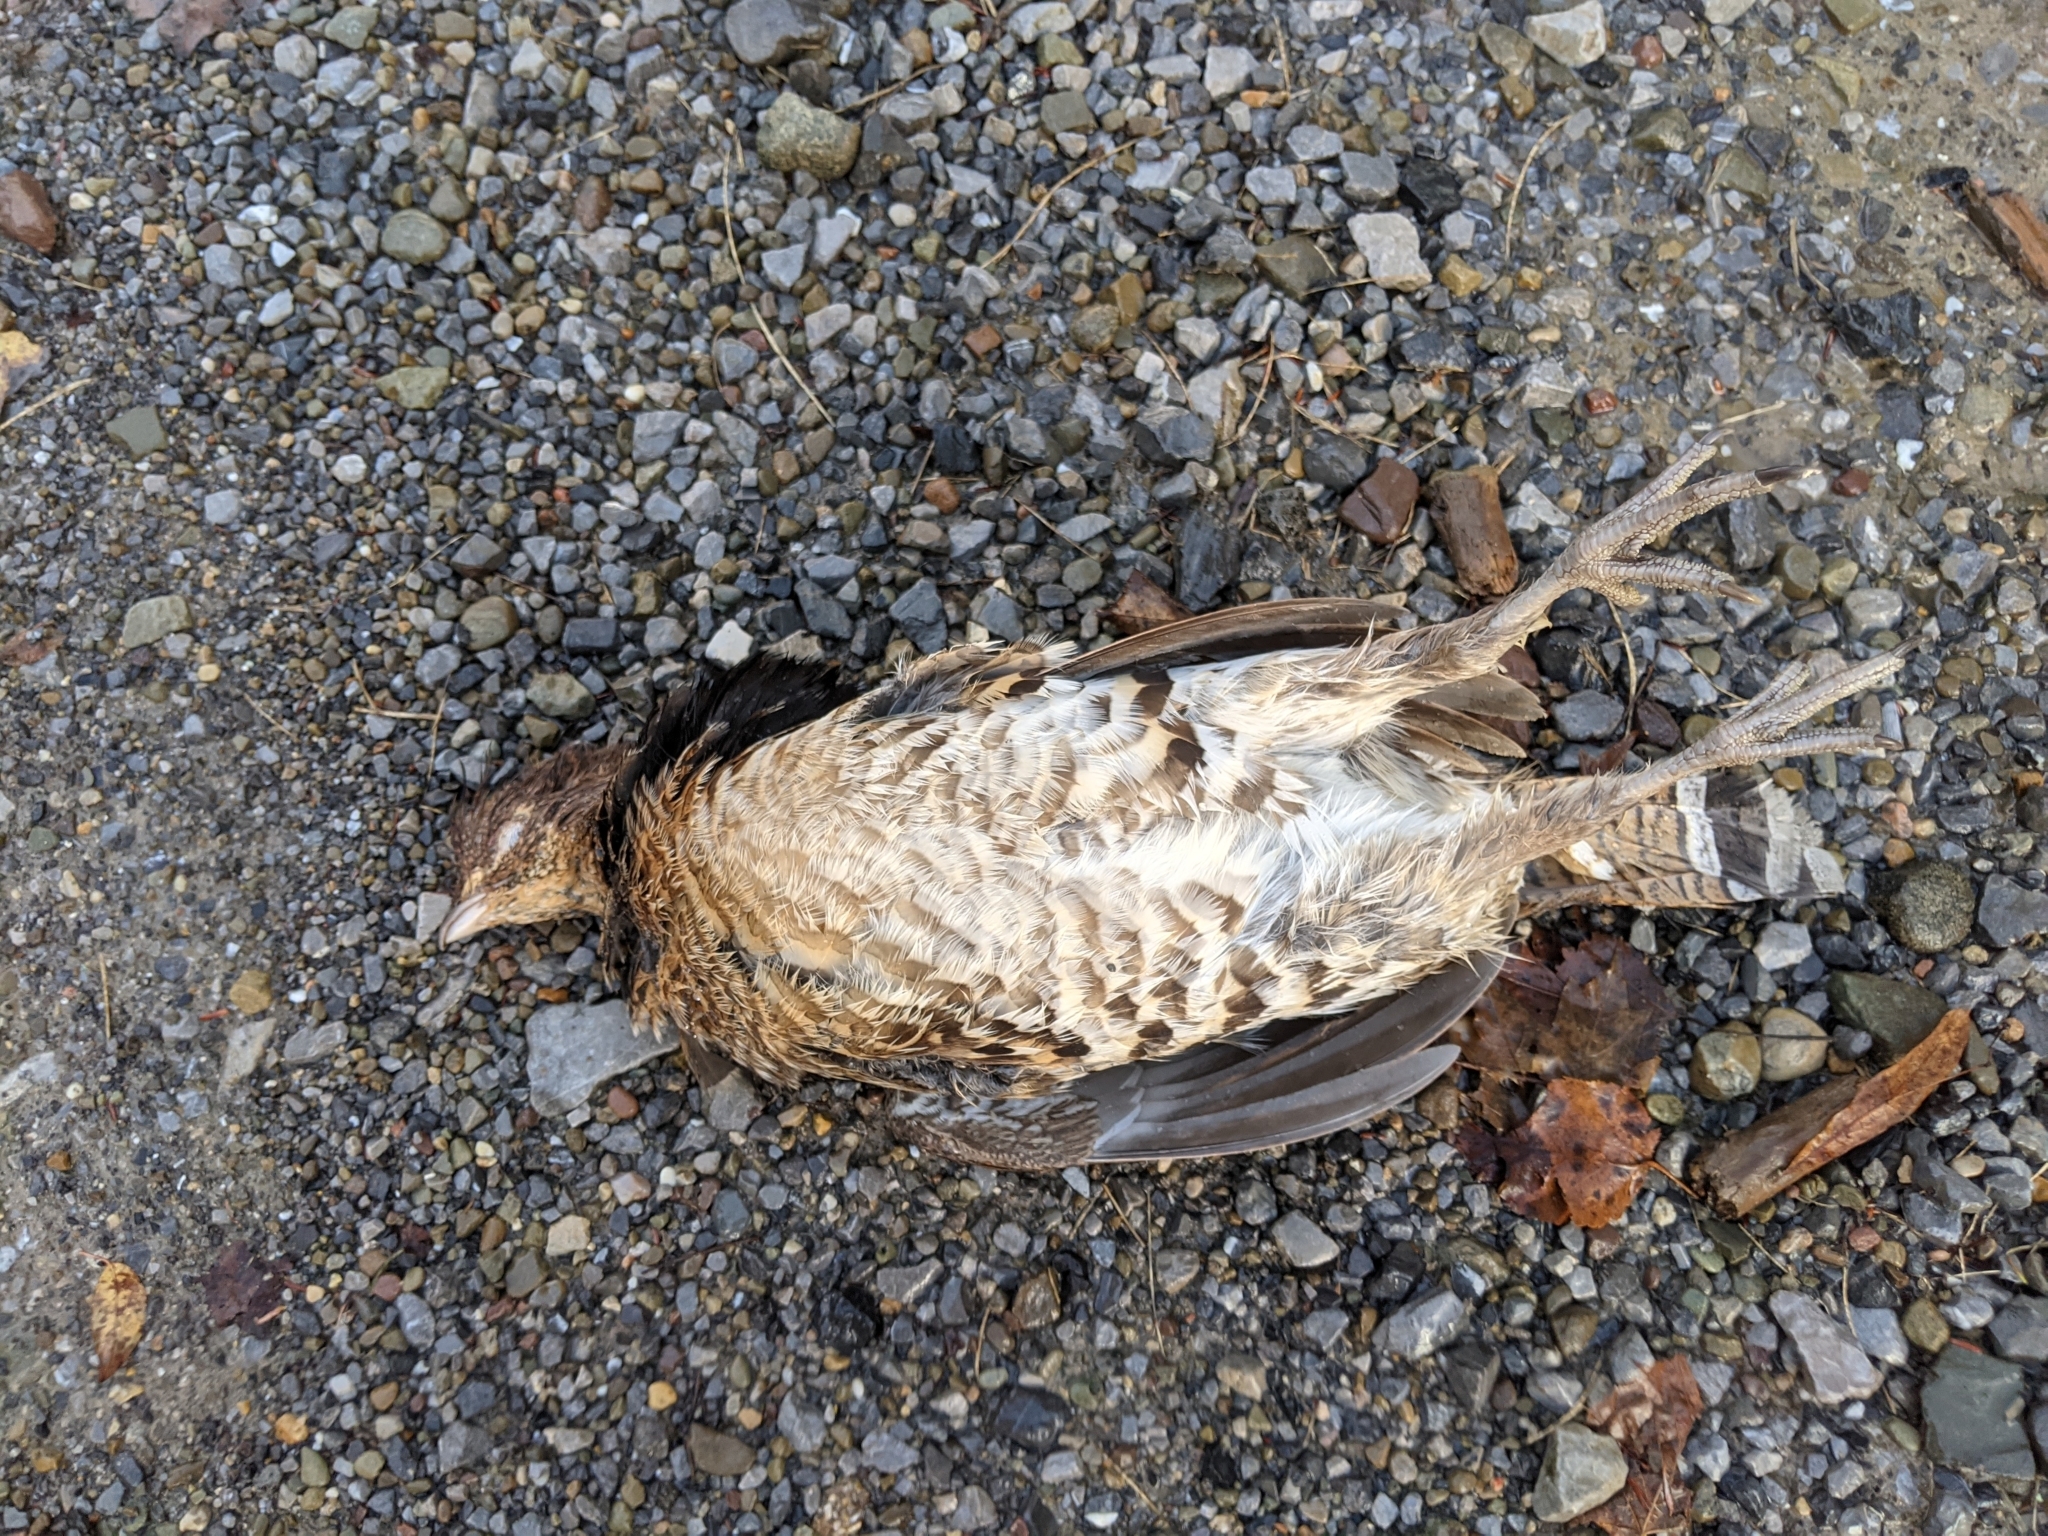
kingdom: Animalia
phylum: Chordata
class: Aves
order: Galliformes
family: Phasianidae
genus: Bonasa
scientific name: Bonasa umbellus
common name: Ruffed grouse
